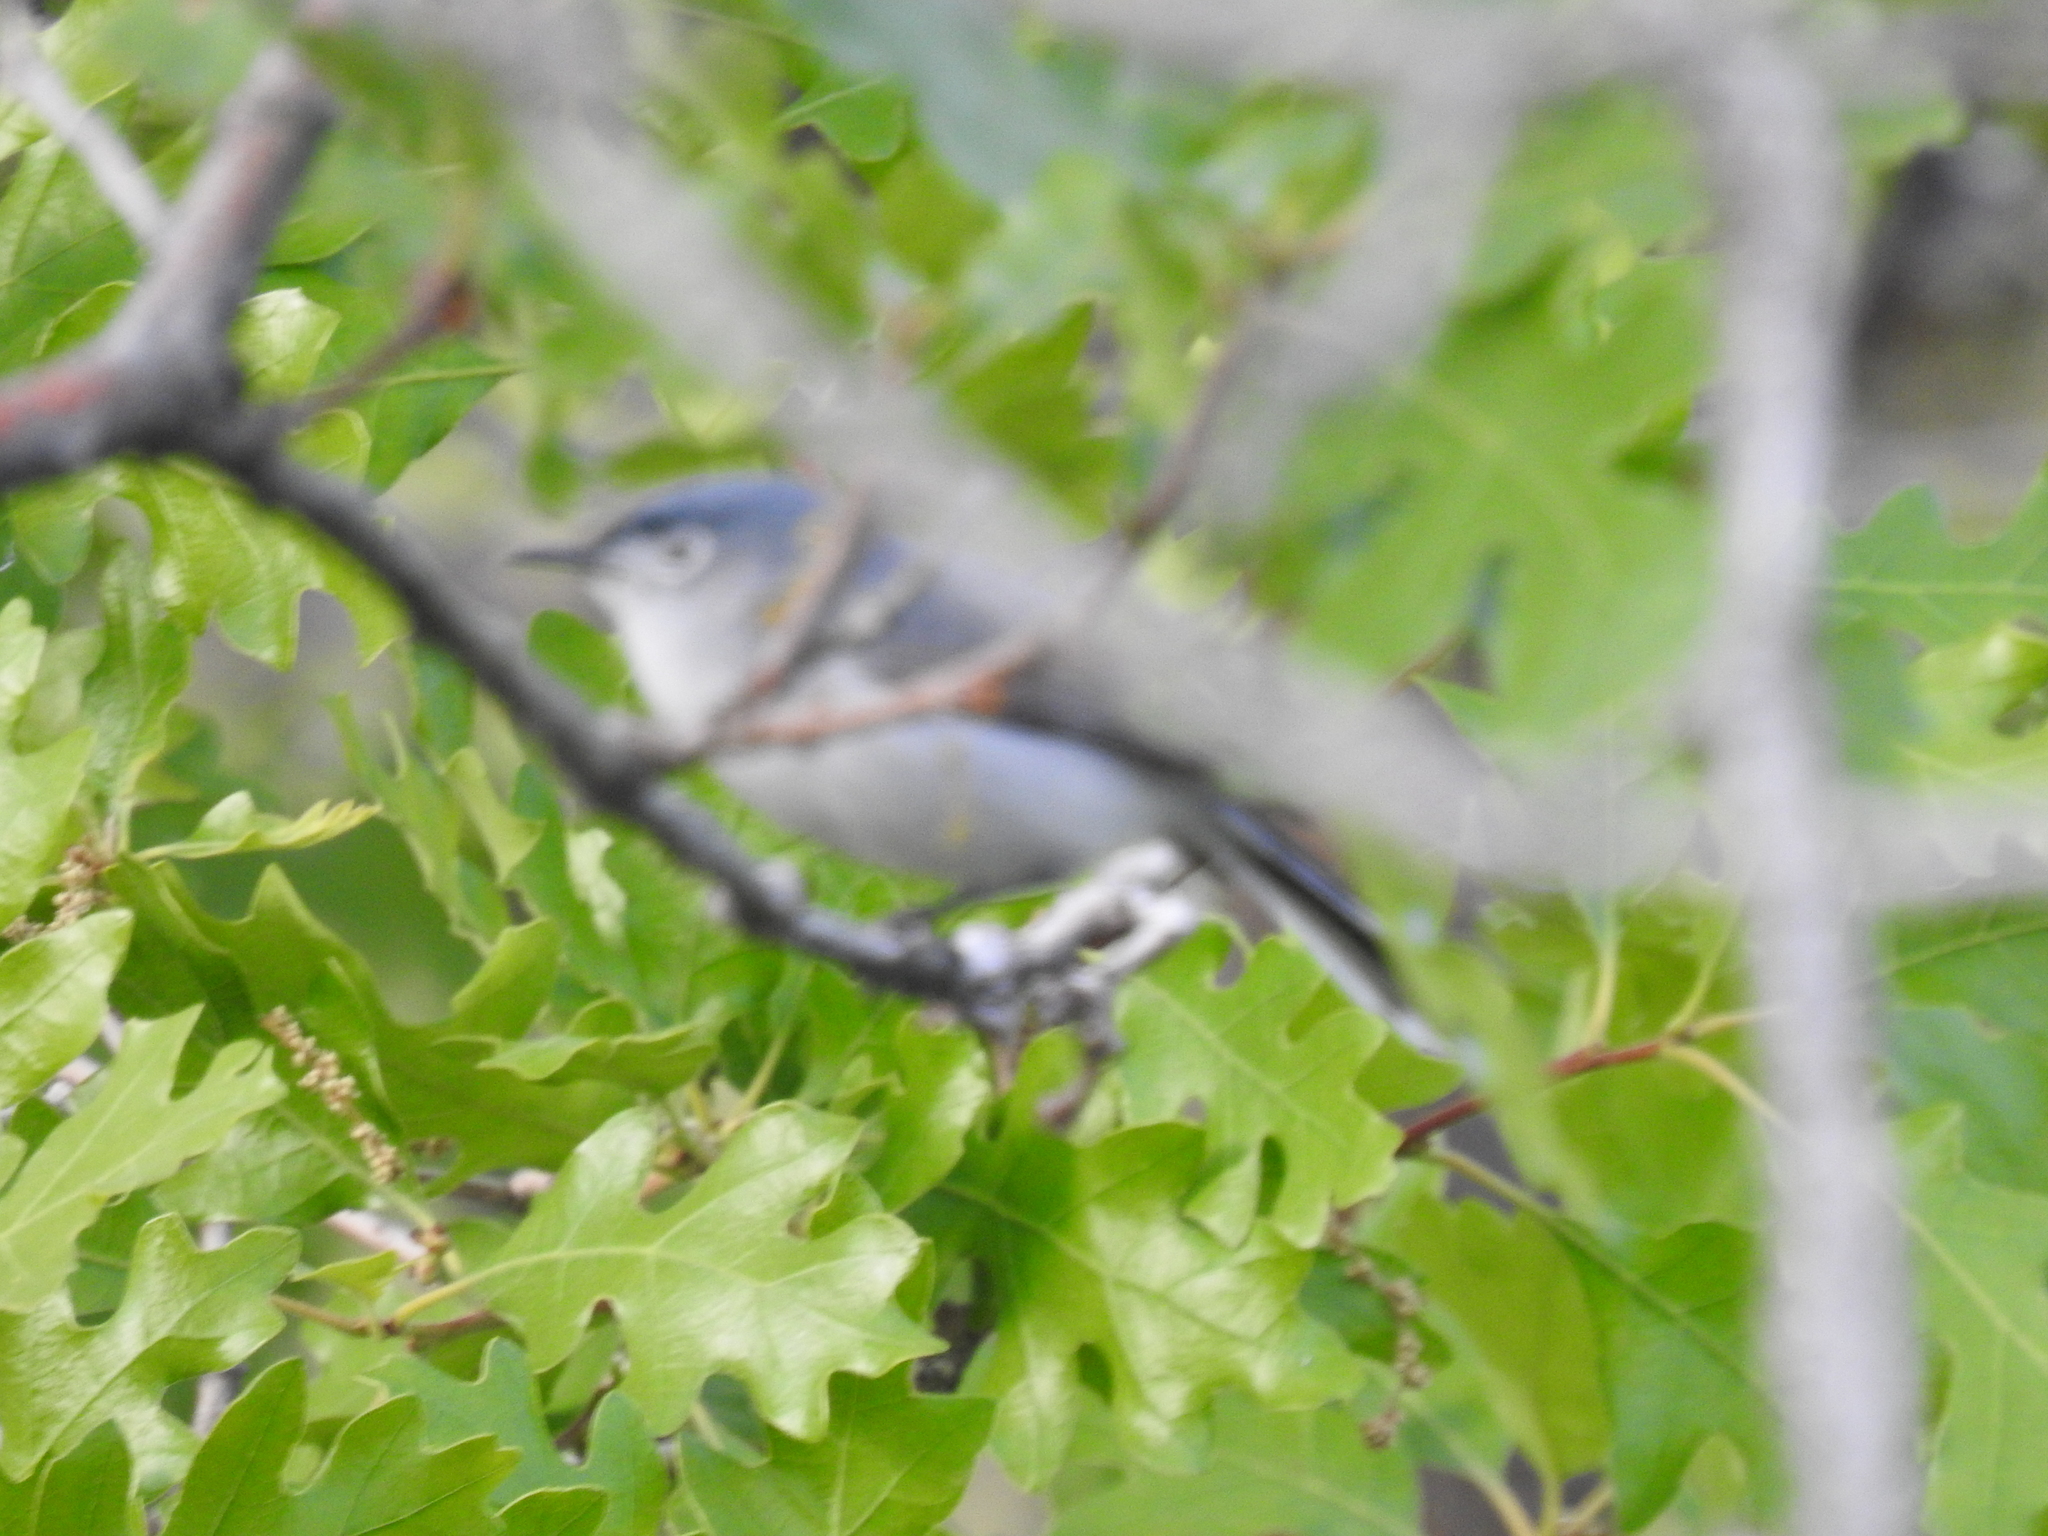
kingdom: Animalia
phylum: Chordata
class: Aves
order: Passeriformes
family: Polioptilidae
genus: Polioptila
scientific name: Polioptila caerulea
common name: Blue-gray gnatcatcher
